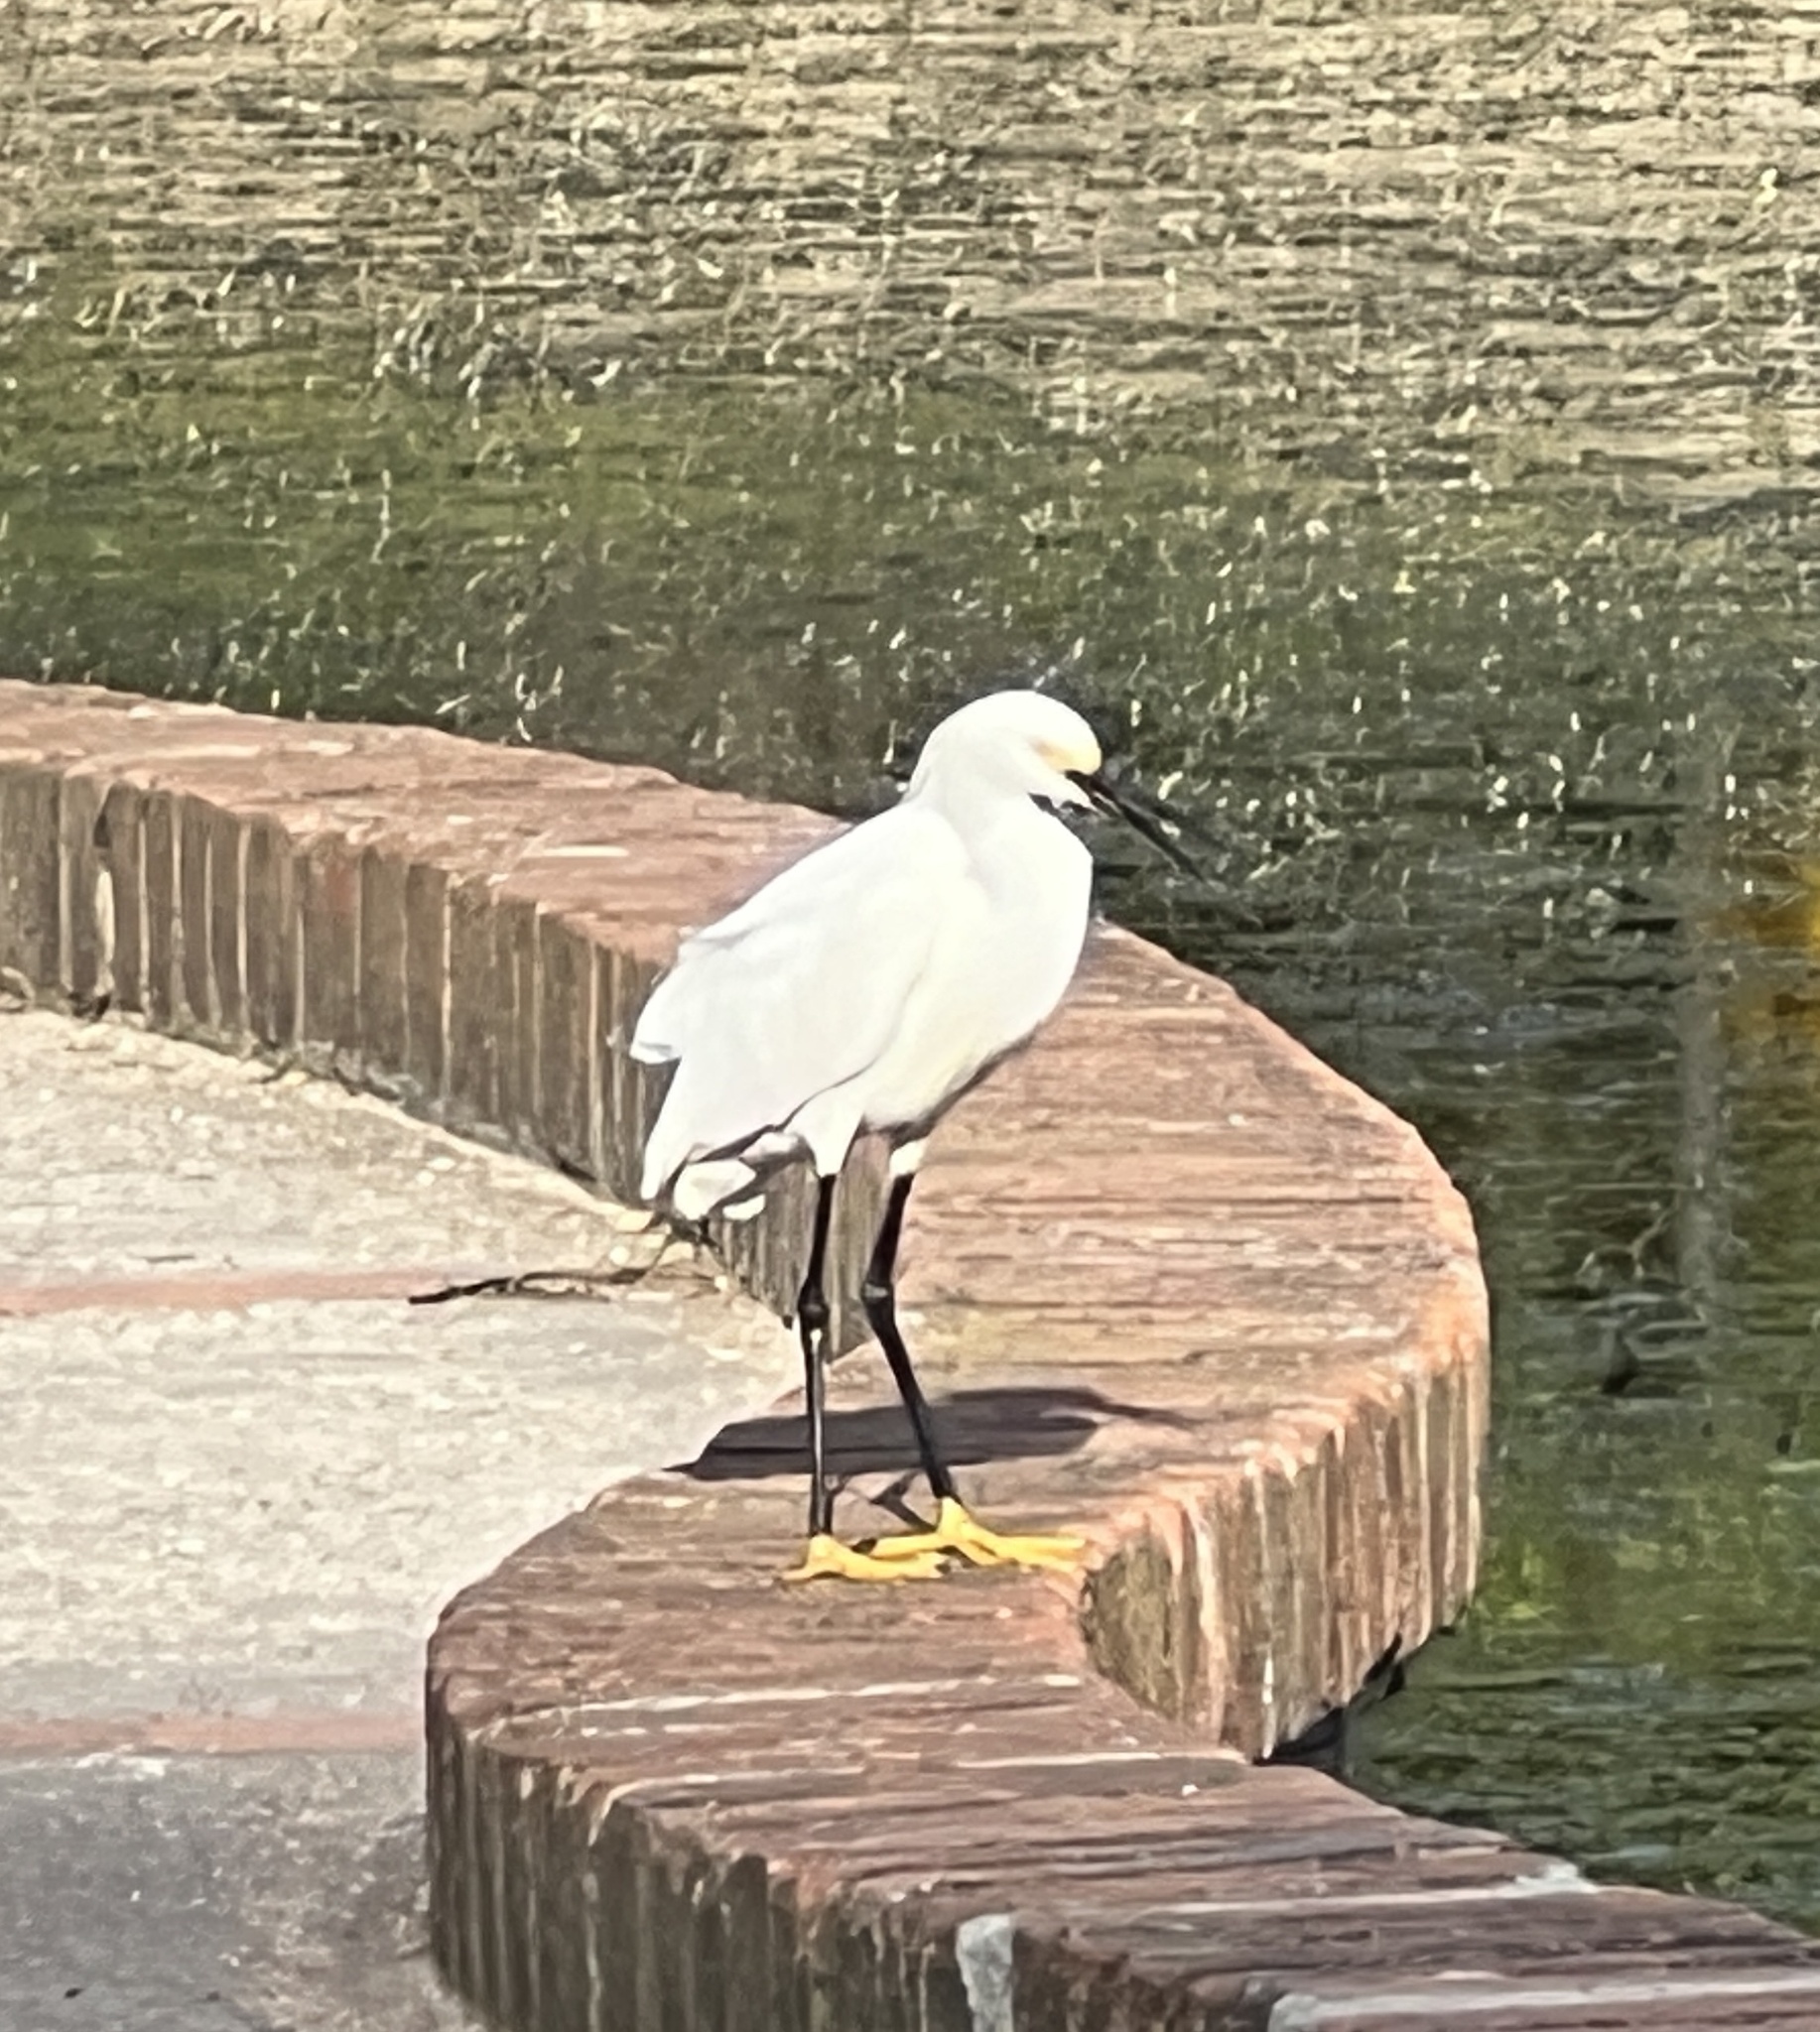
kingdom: Animalia
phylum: Chordata
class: Aves
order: Pelecaniformes
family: Ardeidae
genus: Egretta
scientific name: Egretta thula
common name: Snowy egret
